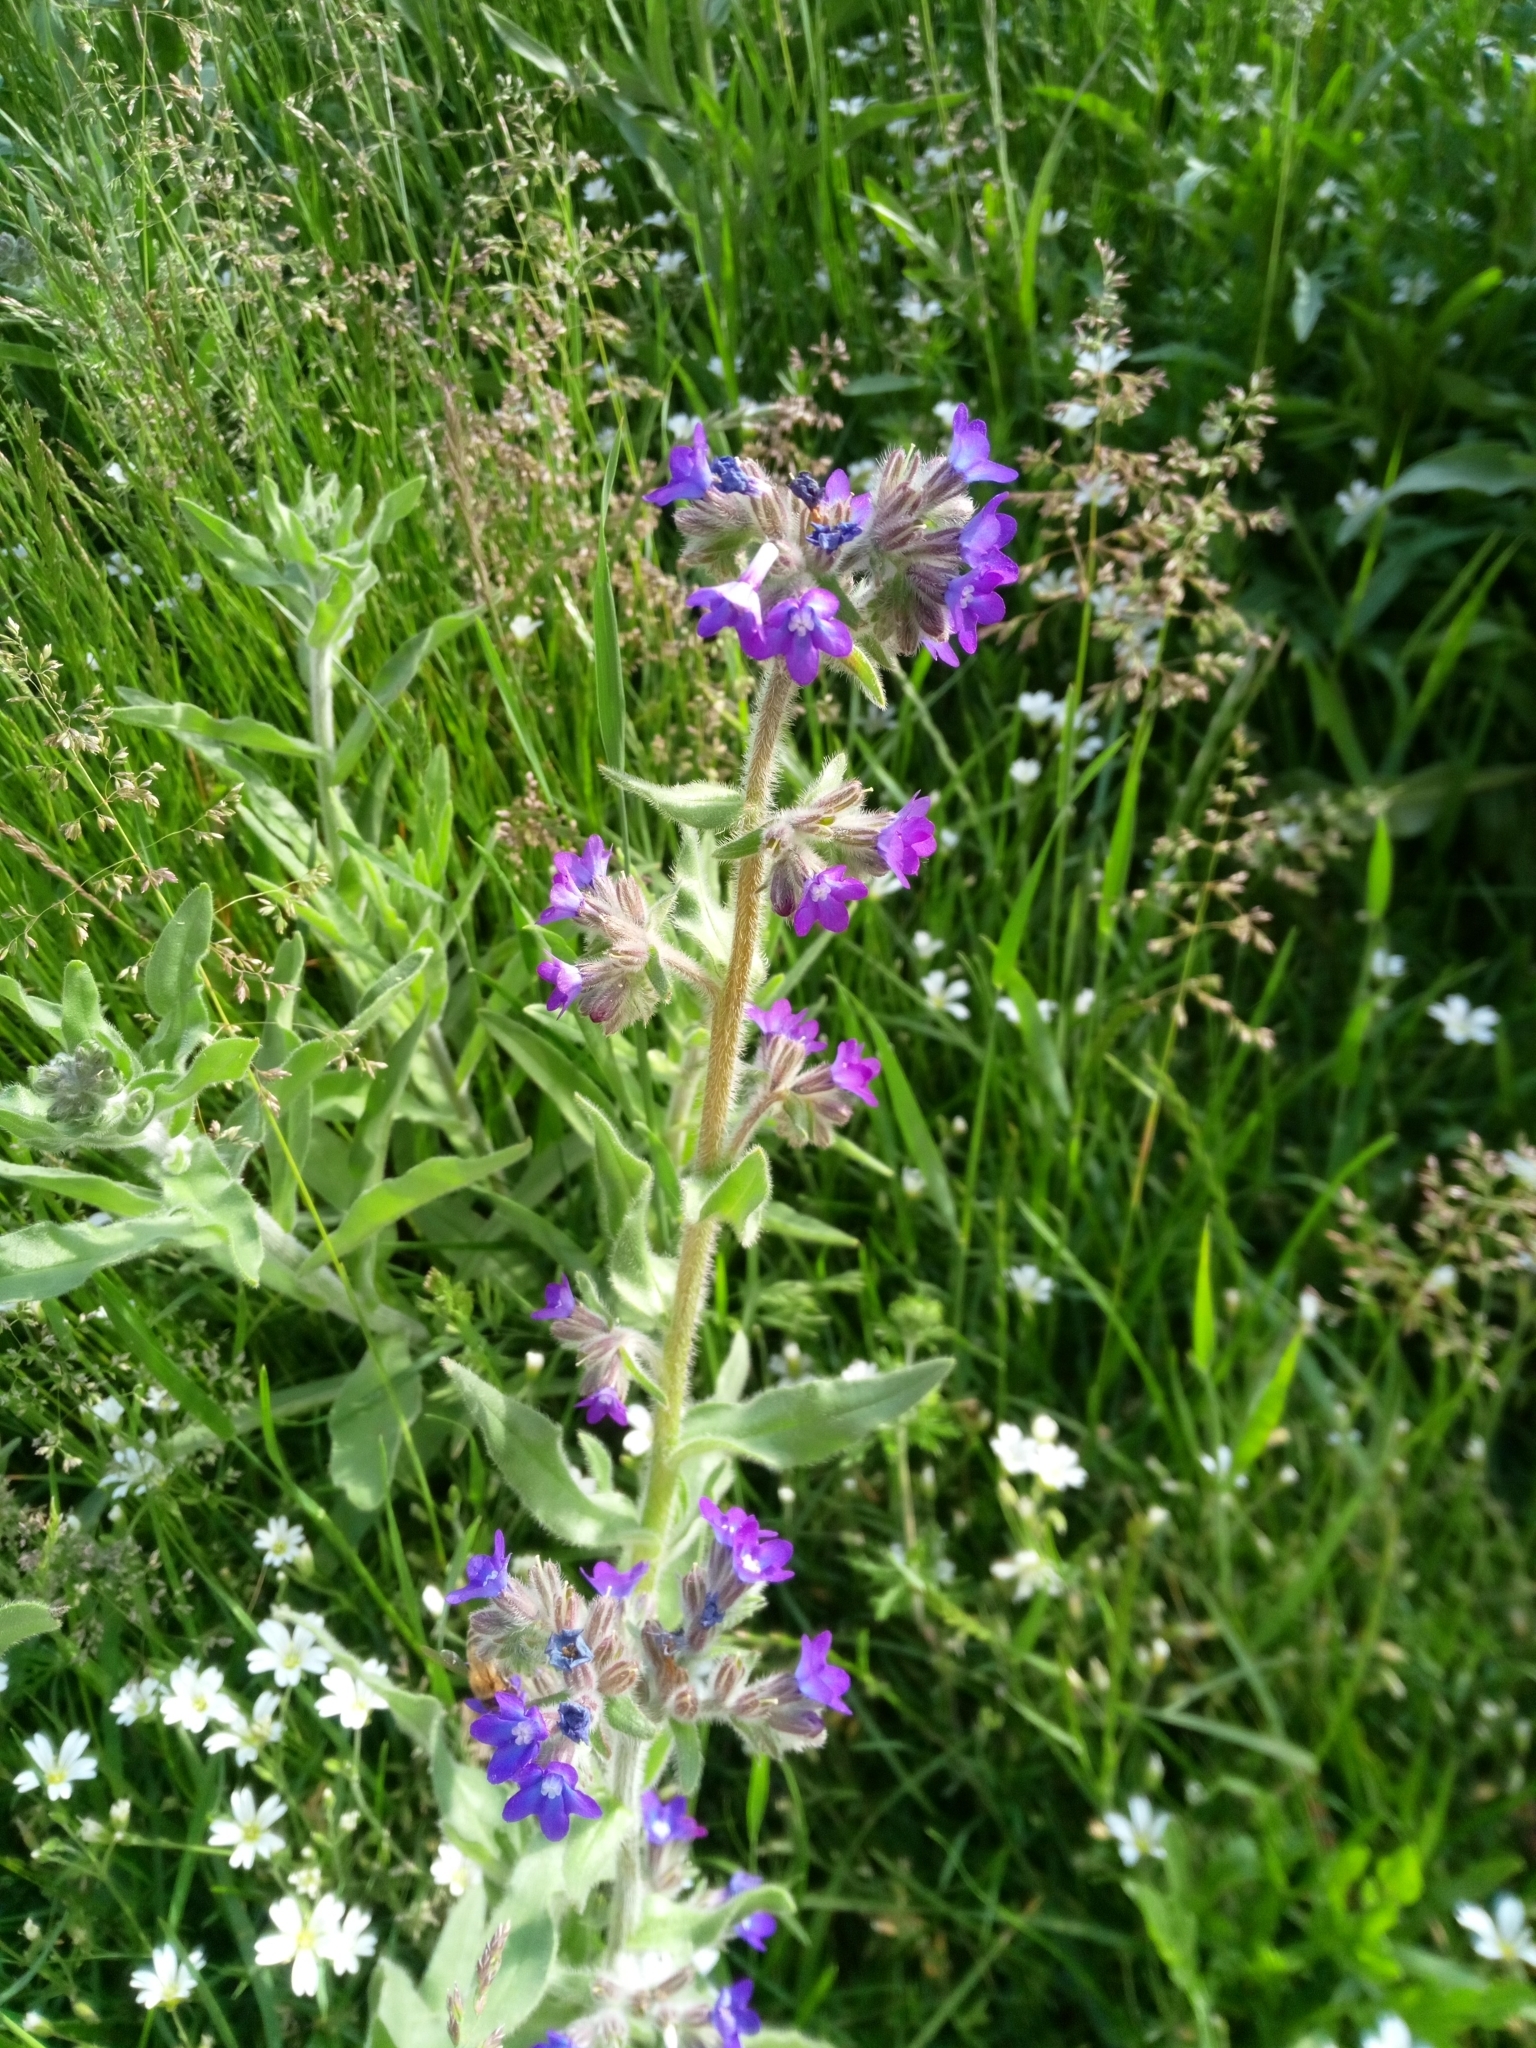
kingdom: Plantae
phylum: Tracheophyta
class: Magnoliopsida
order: Boraginales
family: Boraginaceae
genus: Anchusa
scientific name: Anchusa officinalis
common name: Alkanet
